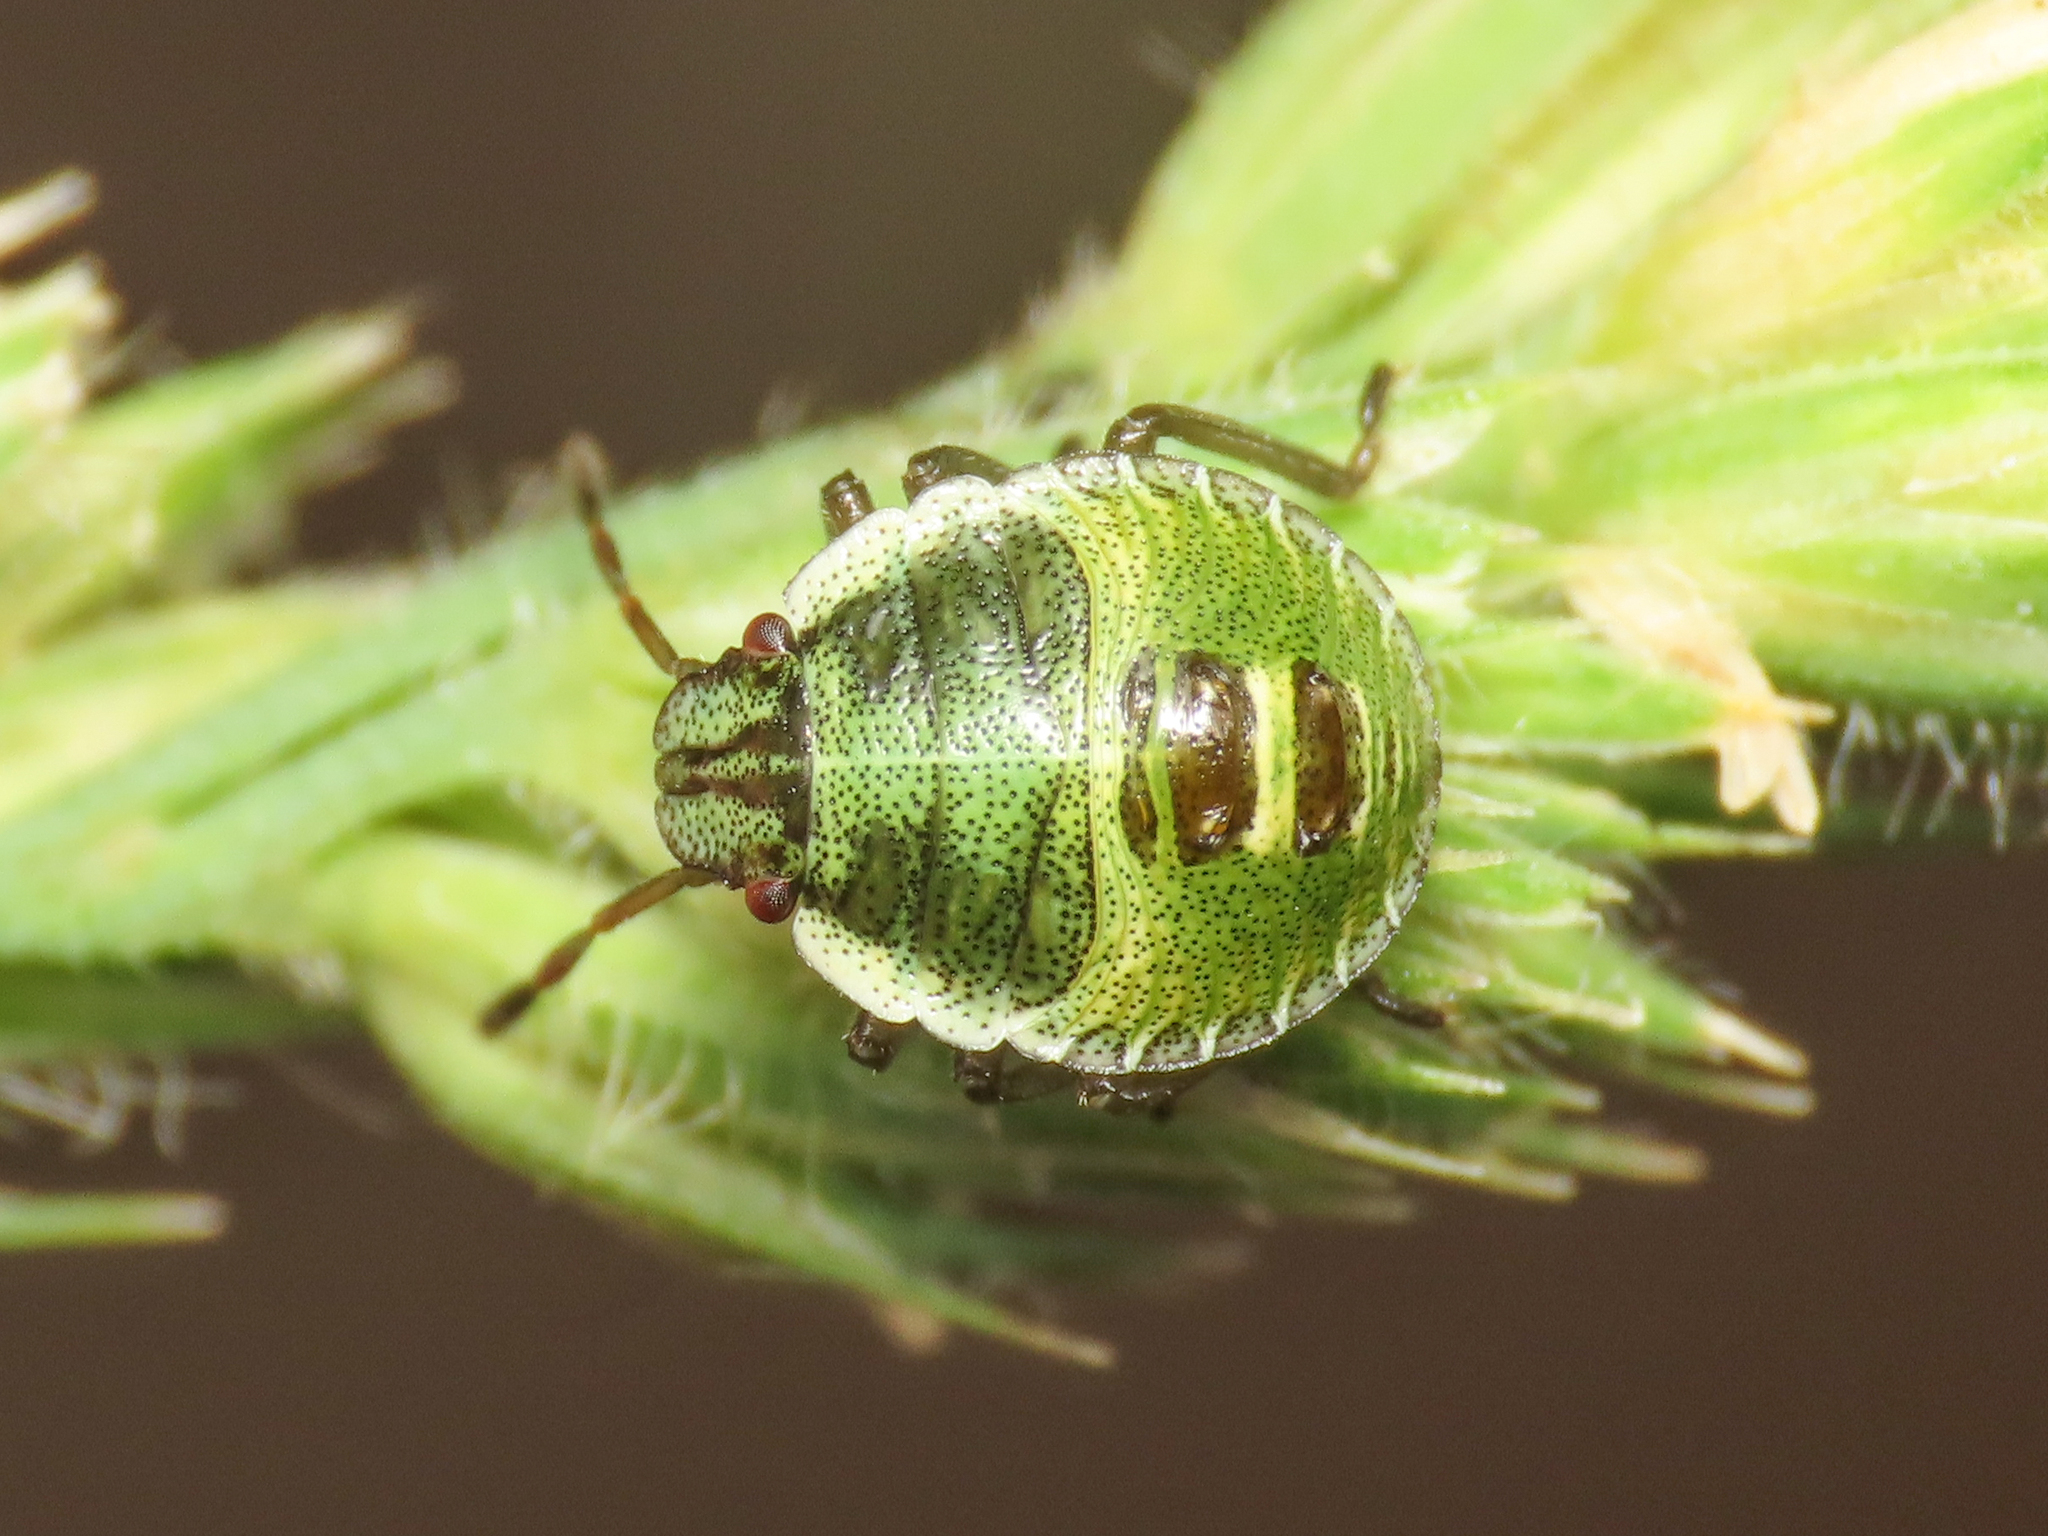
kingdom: Animalia
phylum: Arthropoda
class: Insecta
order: Hemiptera
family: Pentatomidae
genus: Palomena
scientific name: Palomena prasina
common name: Green shieldbug
